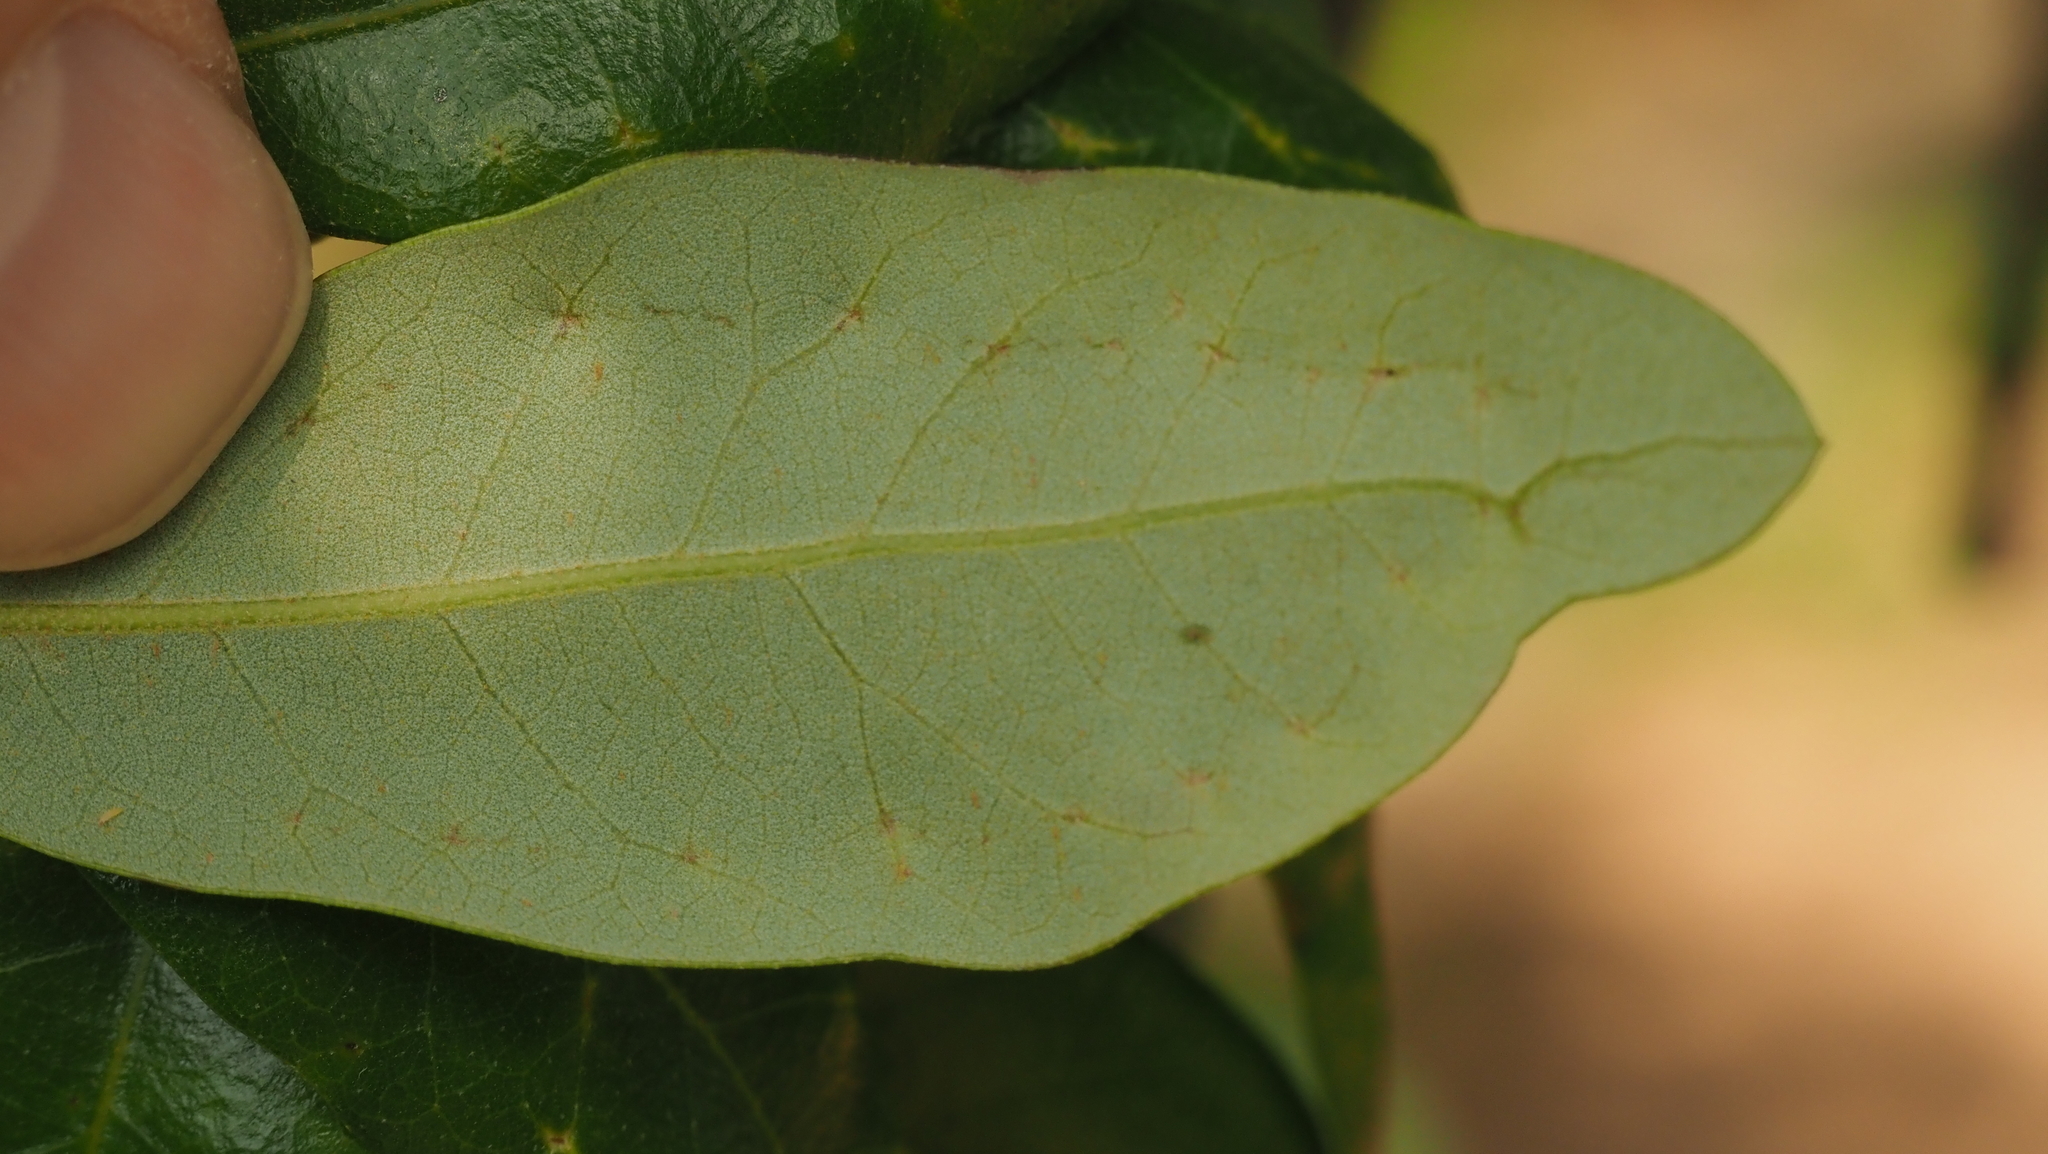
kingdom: Animalia
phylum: Arthropoda
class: Insecta
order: Hymenoptera
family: Cynipidae
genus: Belonocnema
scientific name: Belonocnema kinseyi
